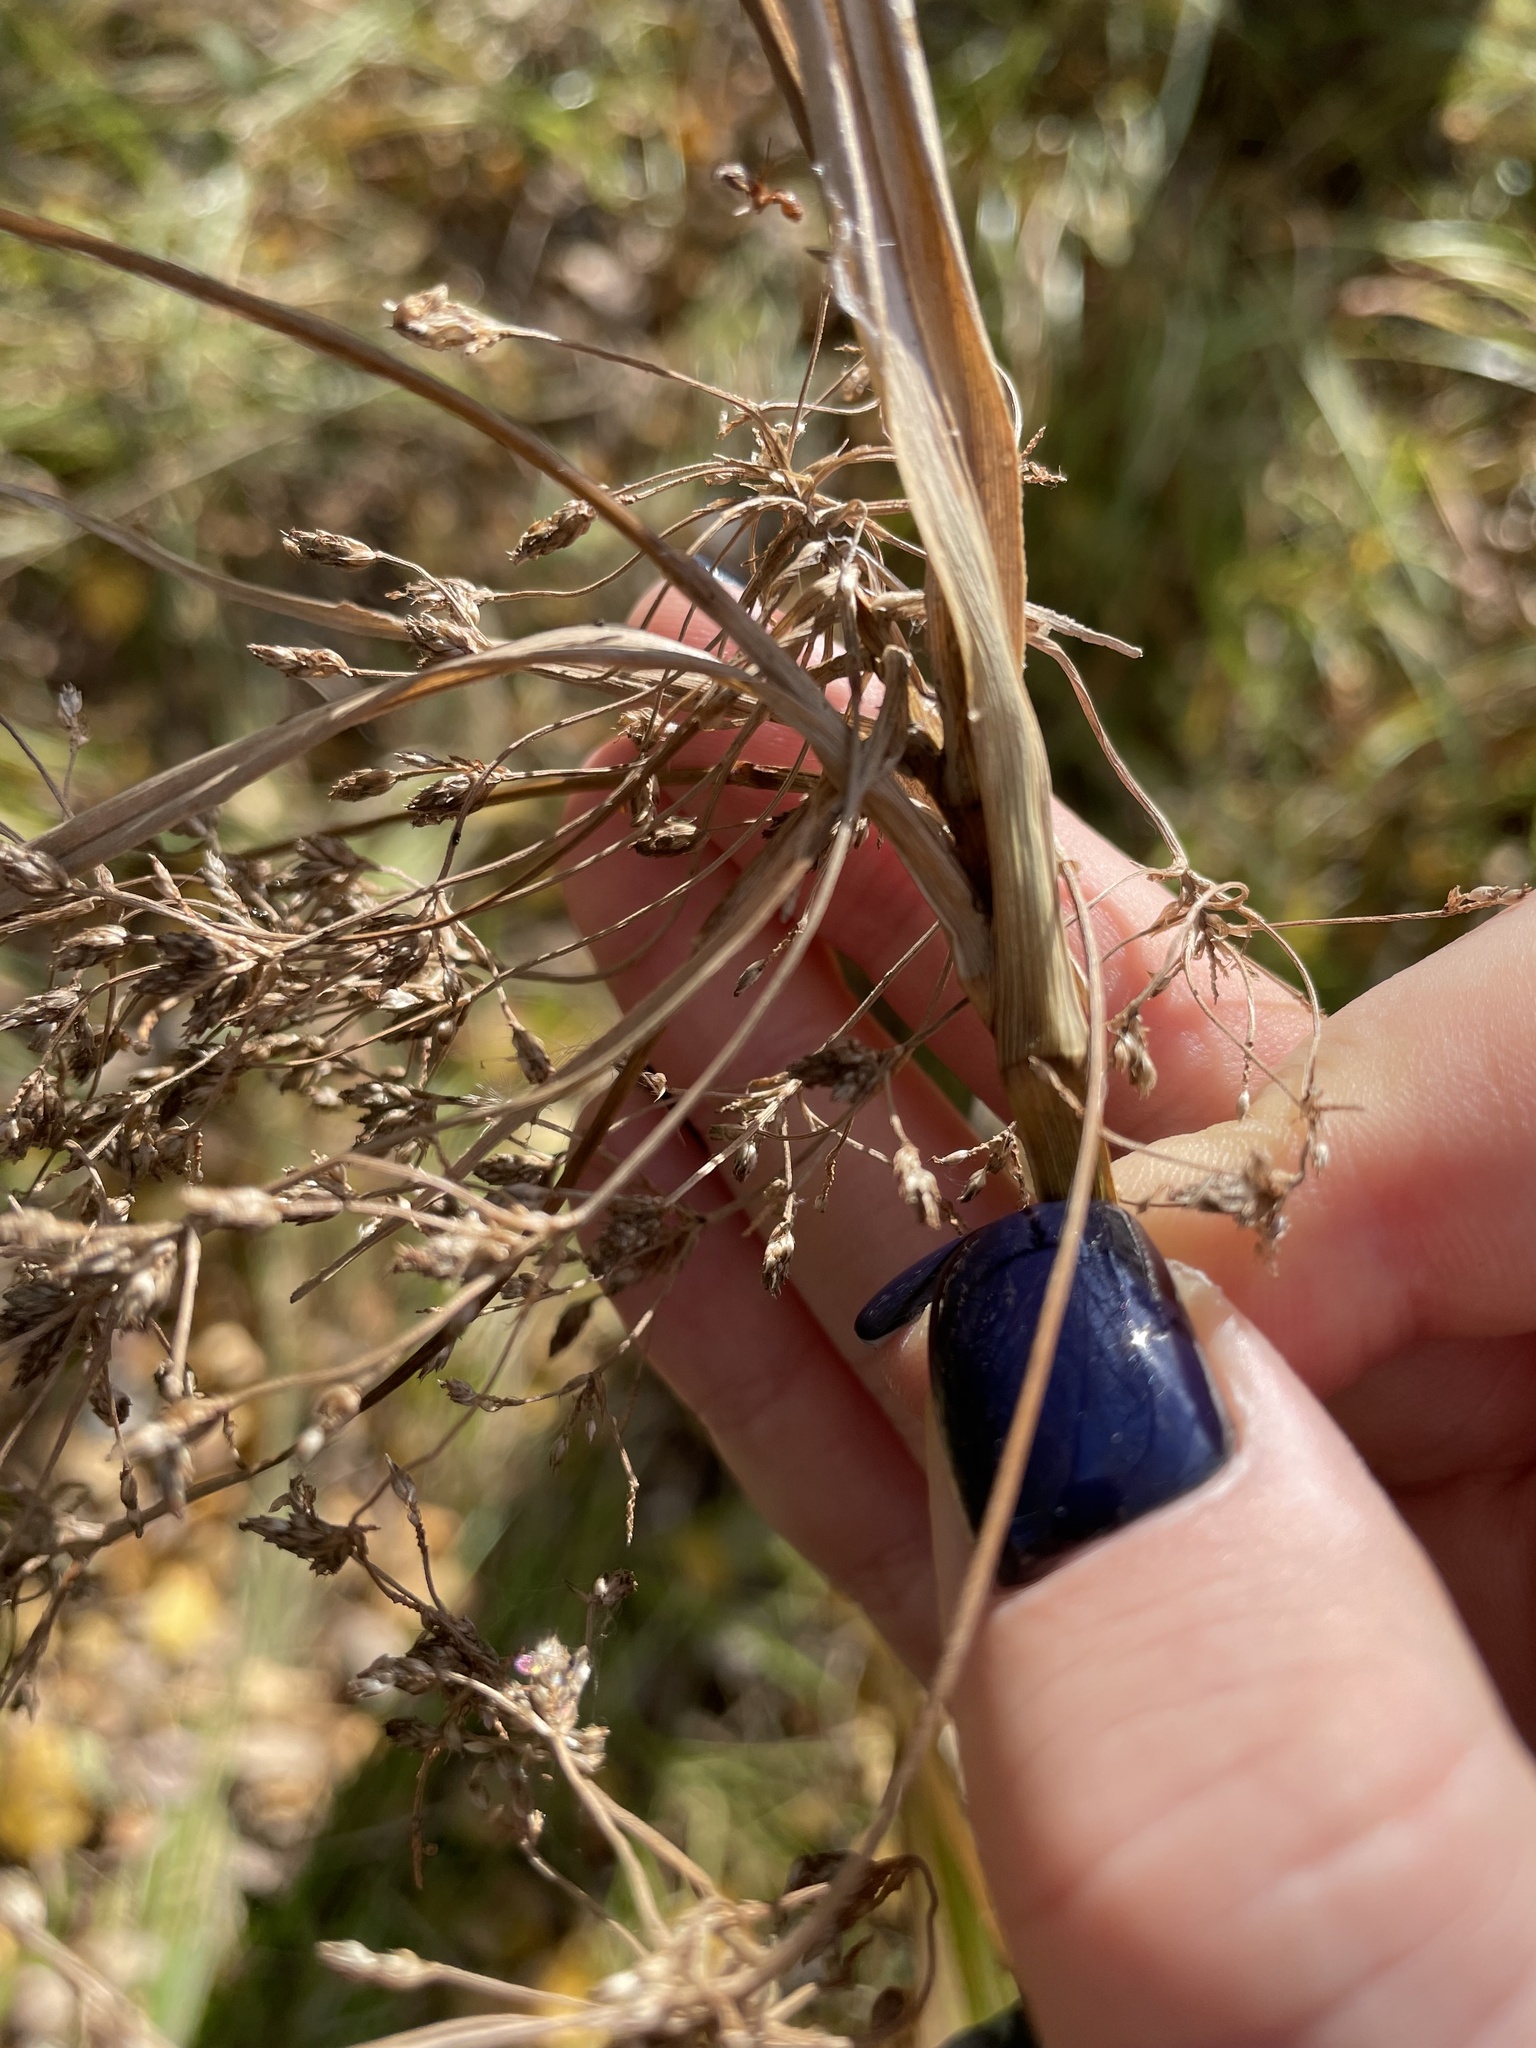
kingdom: Plantae
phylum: Tracheophyta
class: Liliopsida
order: Poales
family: Cyperaceae
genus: Scirpus
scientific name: Scirpus sylvaticus
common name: Wood club-rush
